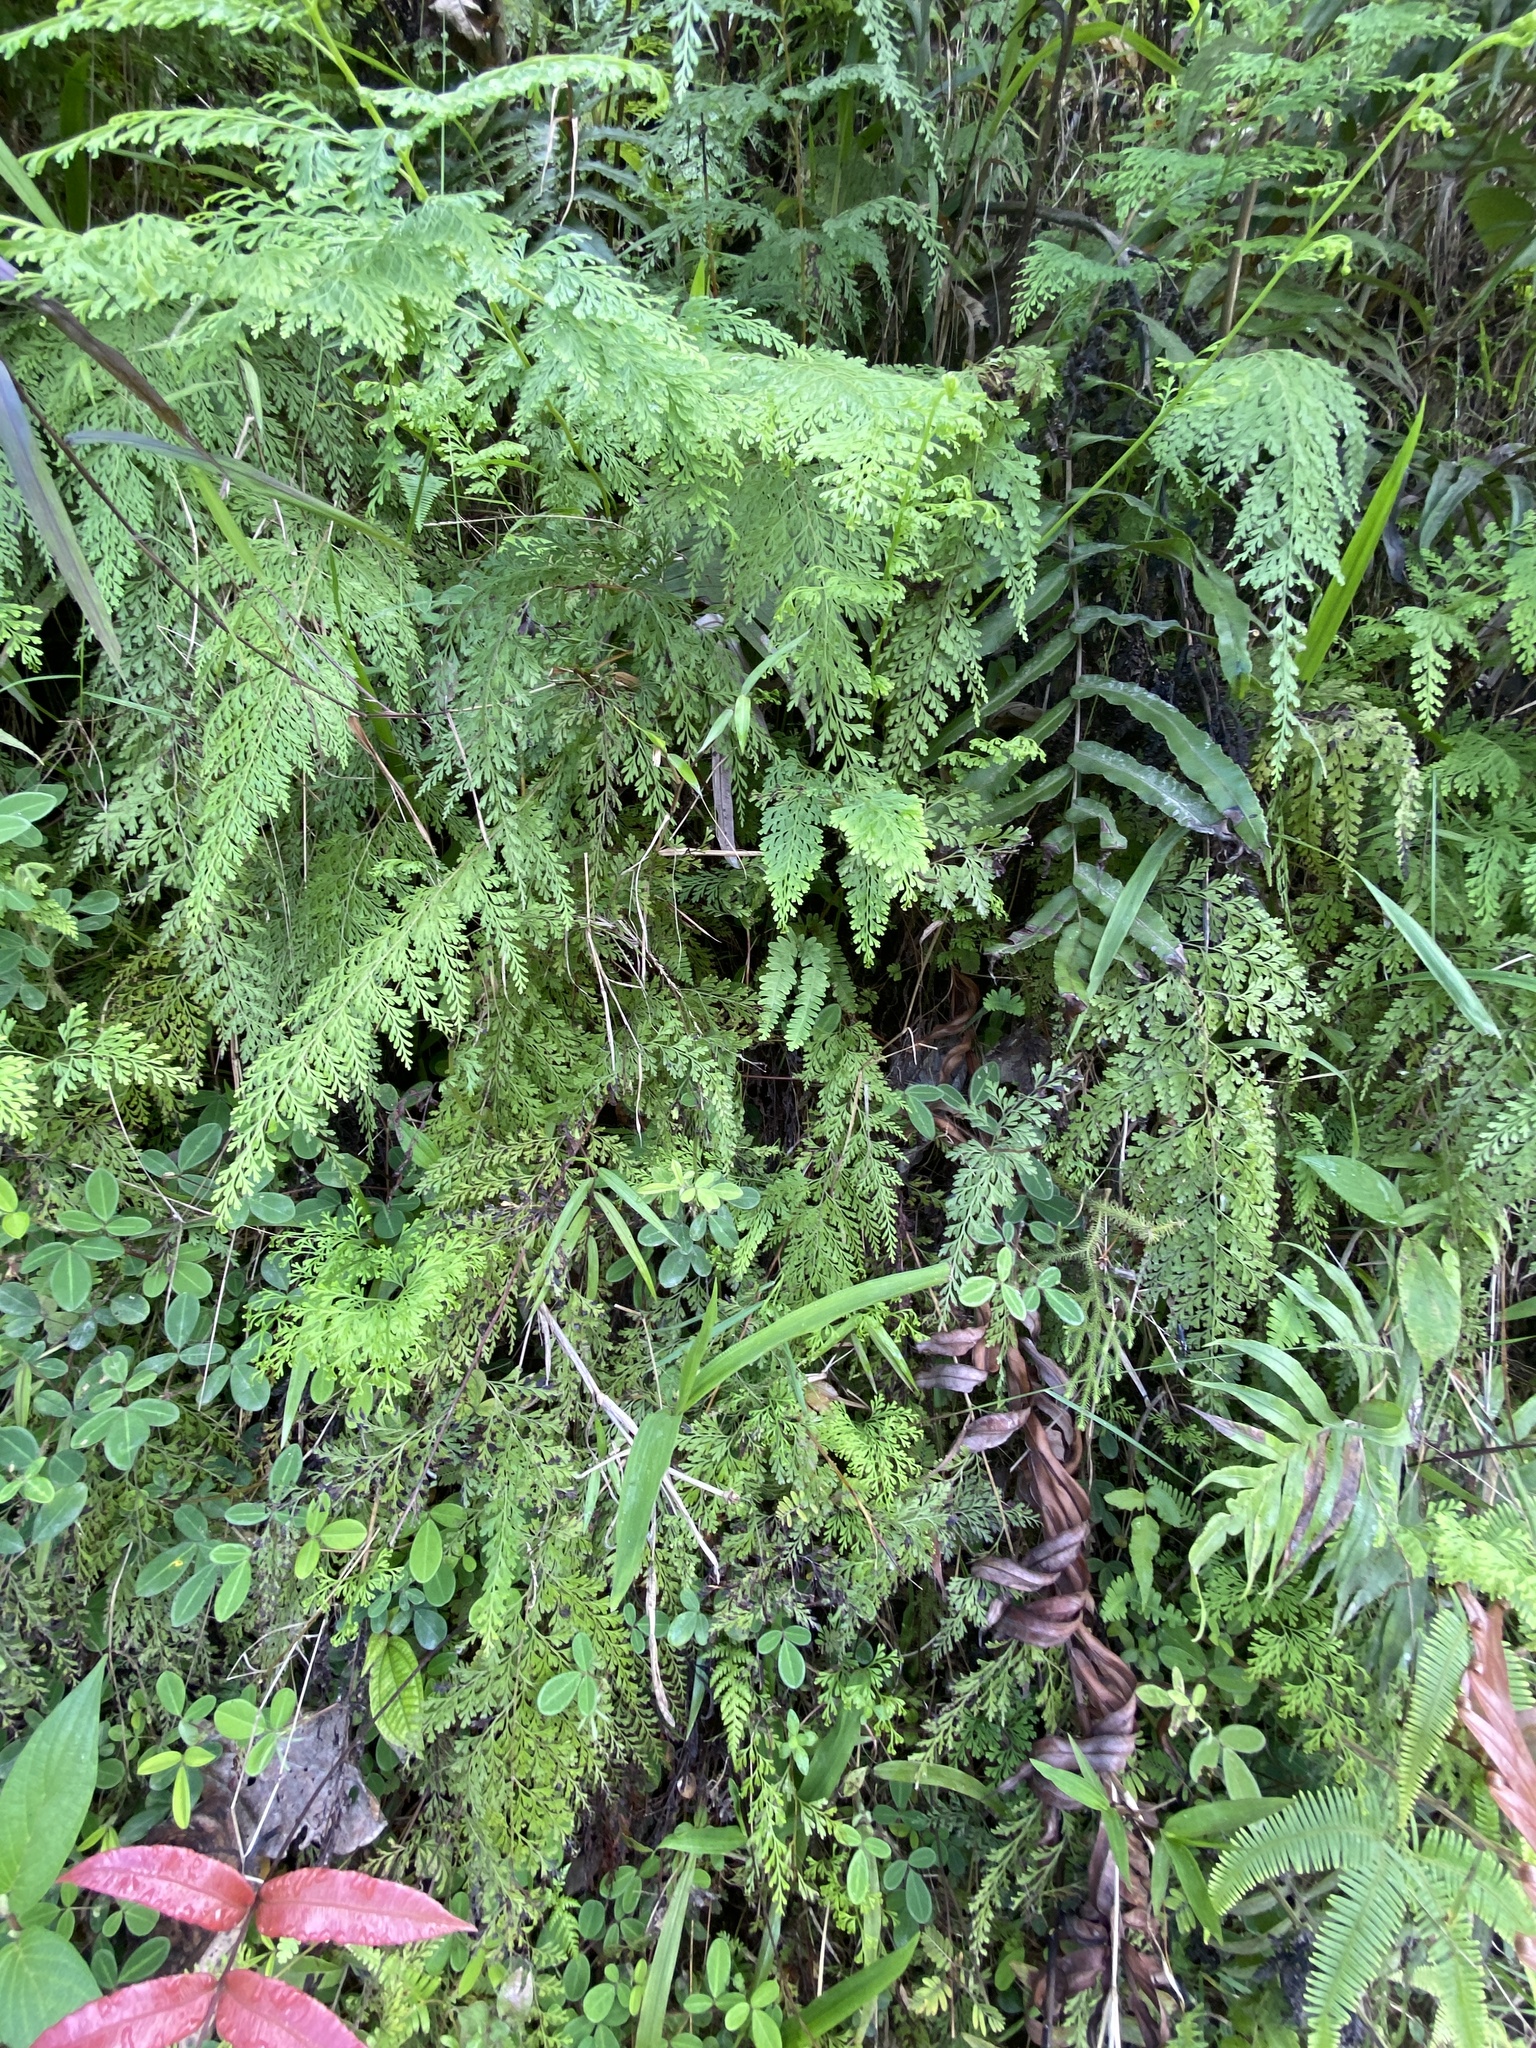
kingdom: Plantae
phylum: Tracheophyta
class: Polypodiopsida
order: Polypodiales
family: Lindsaeaceae
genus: Odontosoria
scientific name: Odontosoria chinensis
